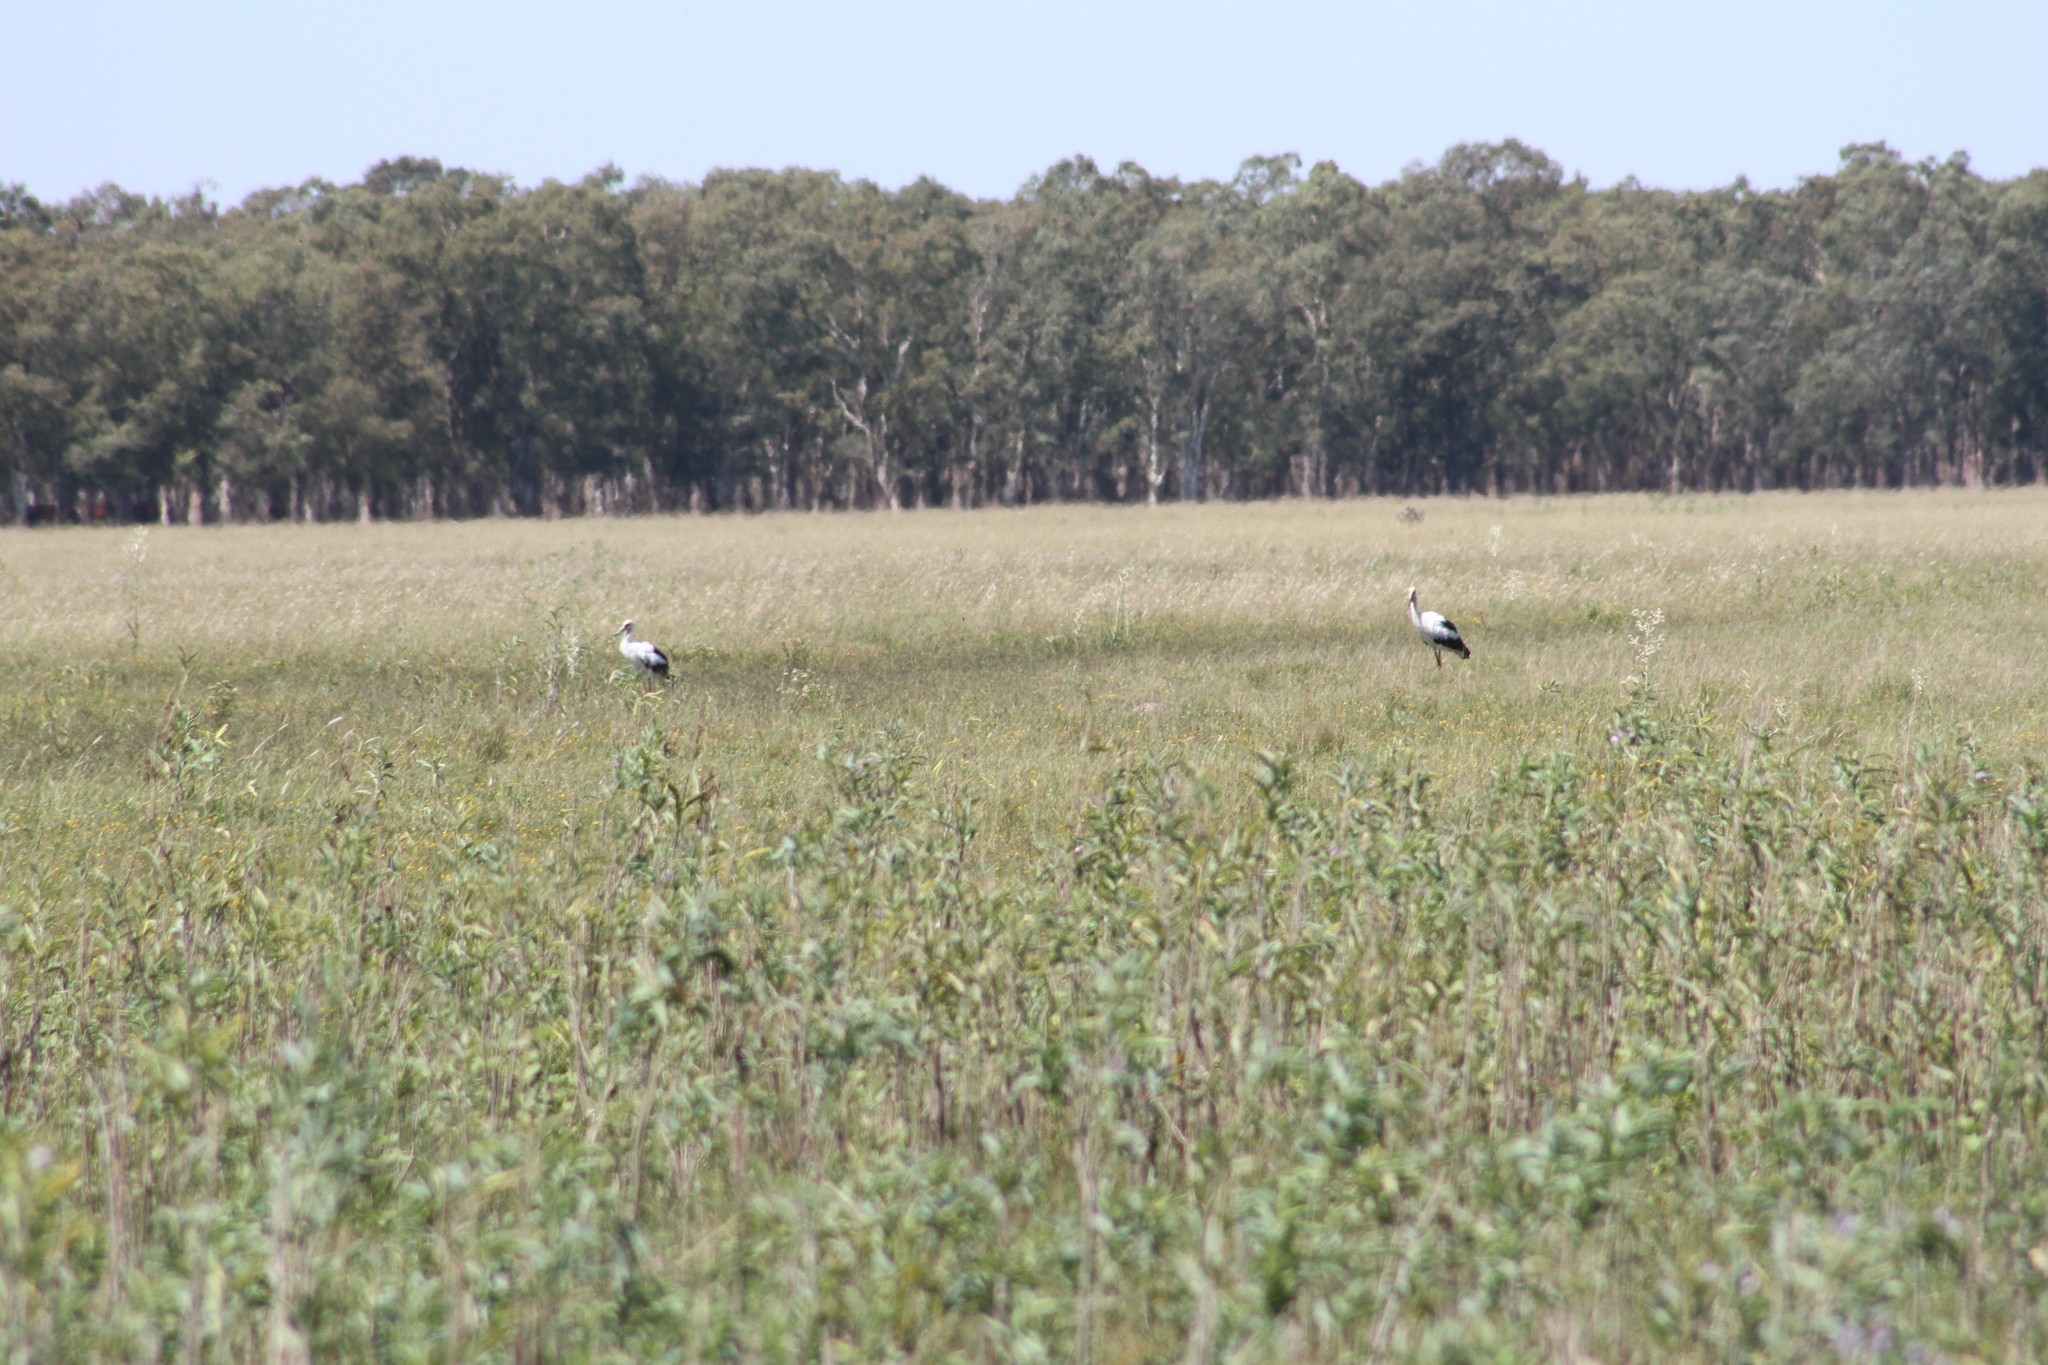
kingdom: Animalia
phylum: Chordata
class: Aves
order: Ciconiiformes
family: Ciconiidae
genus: Ciconia
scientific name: Ciconia maguari
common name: Maguari stork
